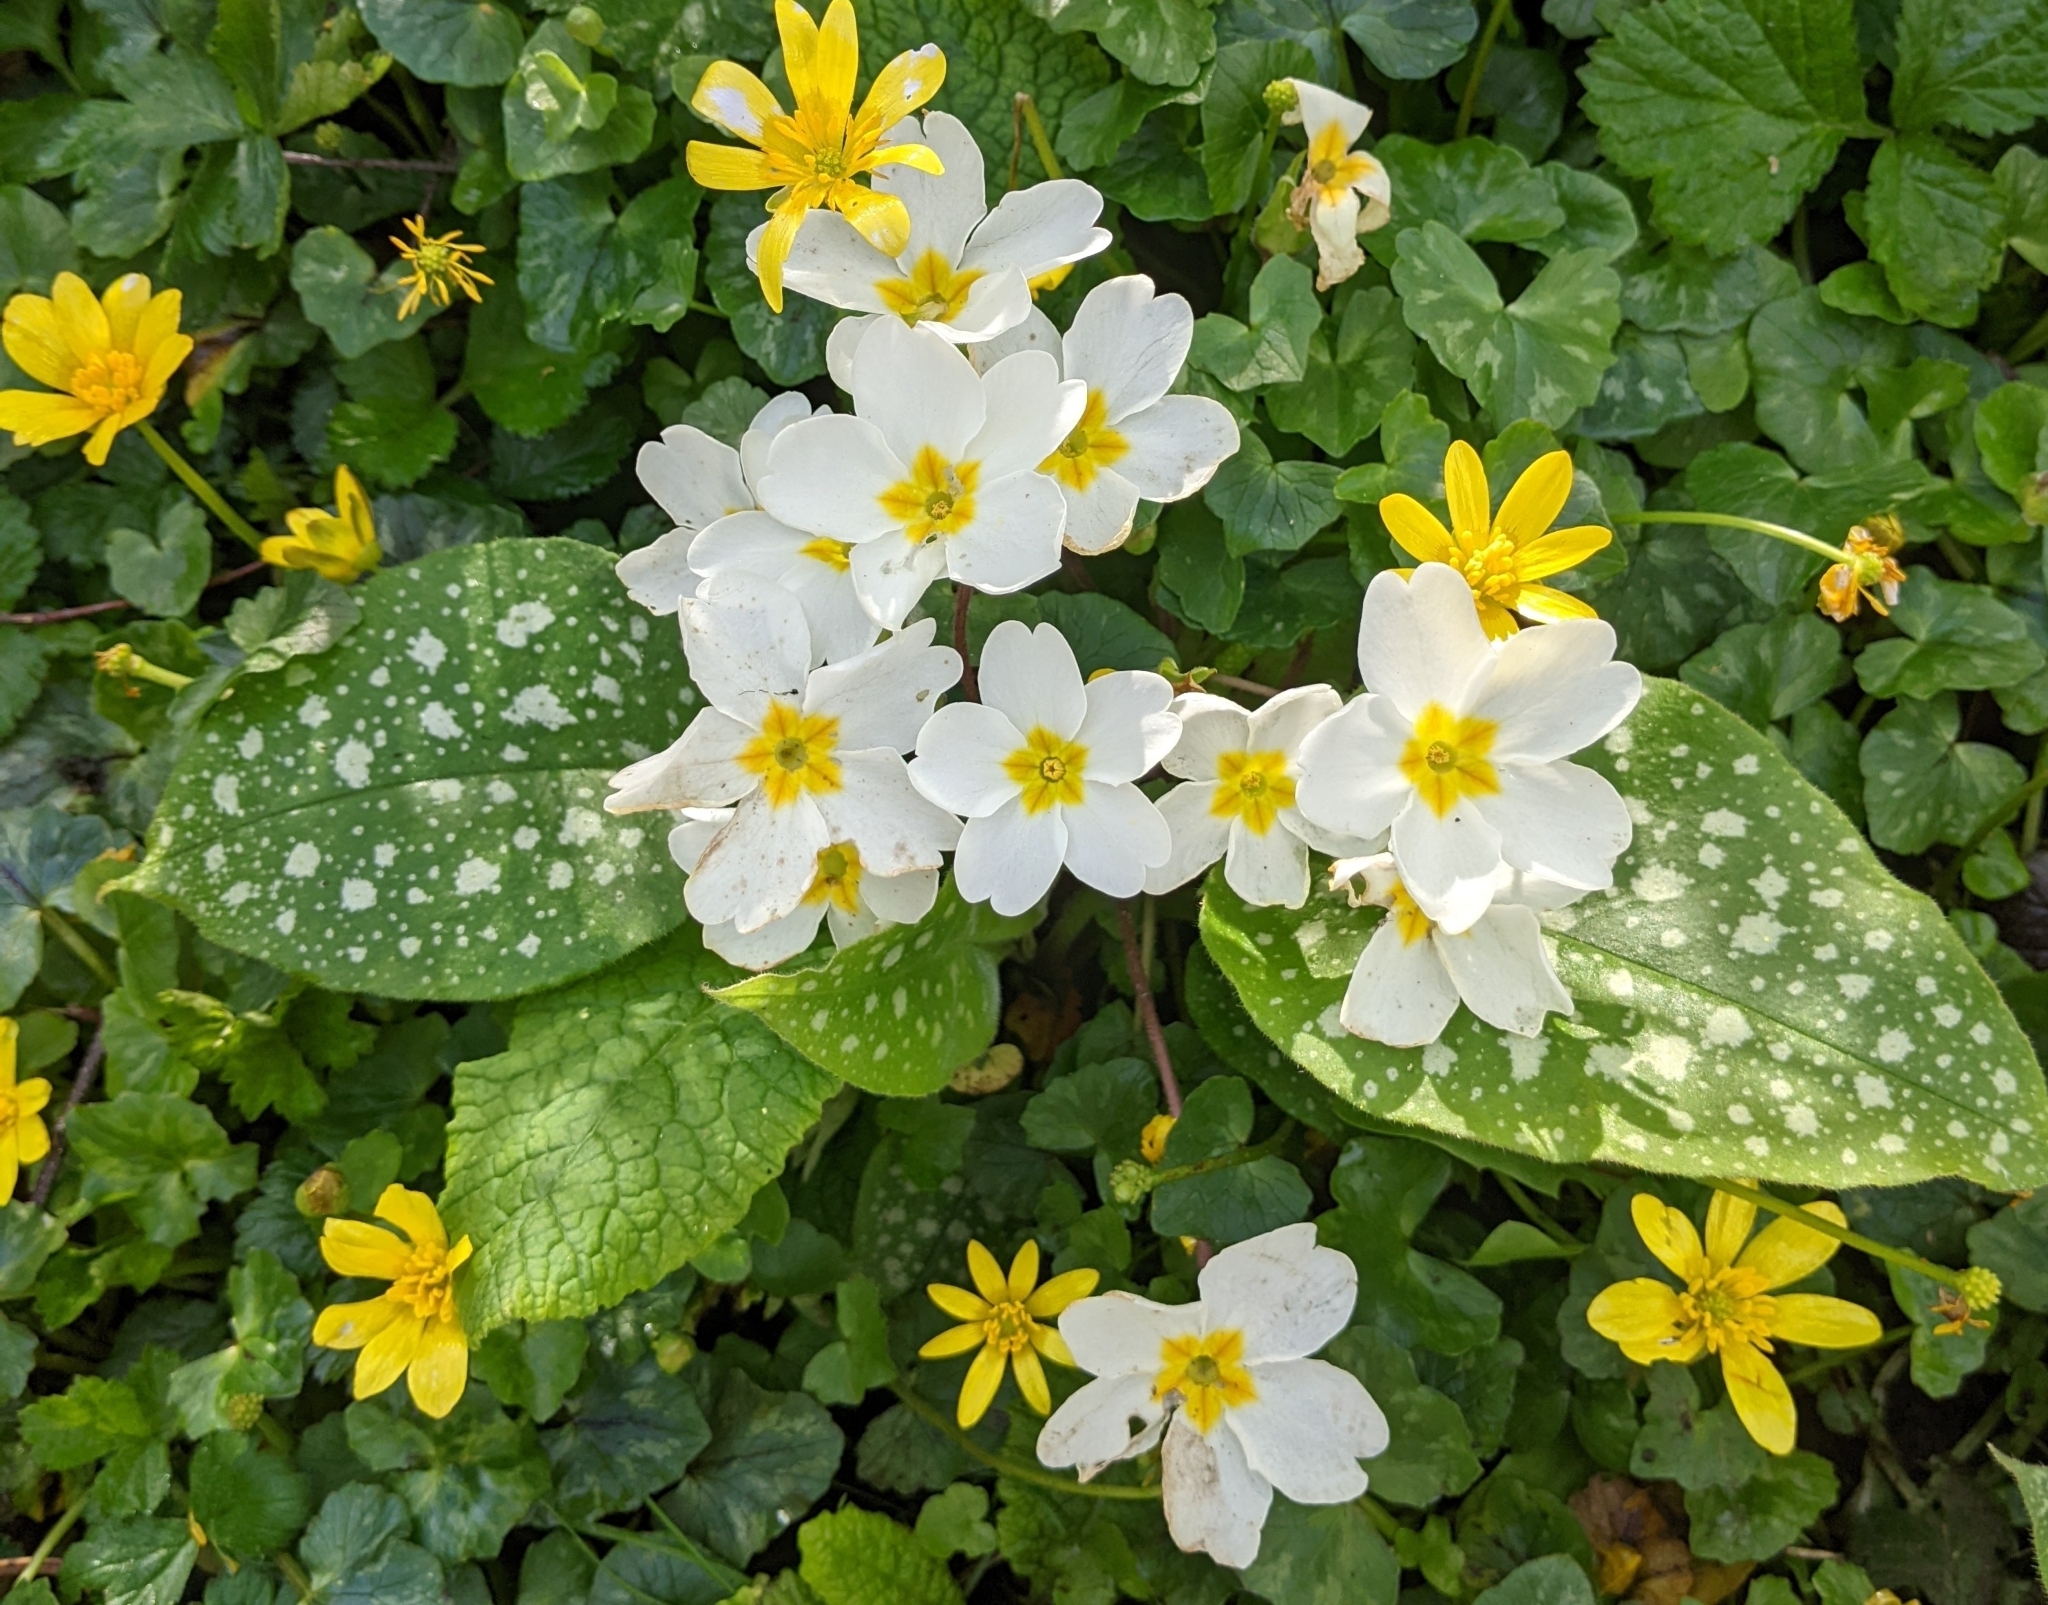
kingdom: Plantae
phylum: Tracheophyta
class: Magnoliopsida
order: Ericales
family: Primulaceae
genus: Primula
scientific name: Primula vulgaris
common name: Primrose
